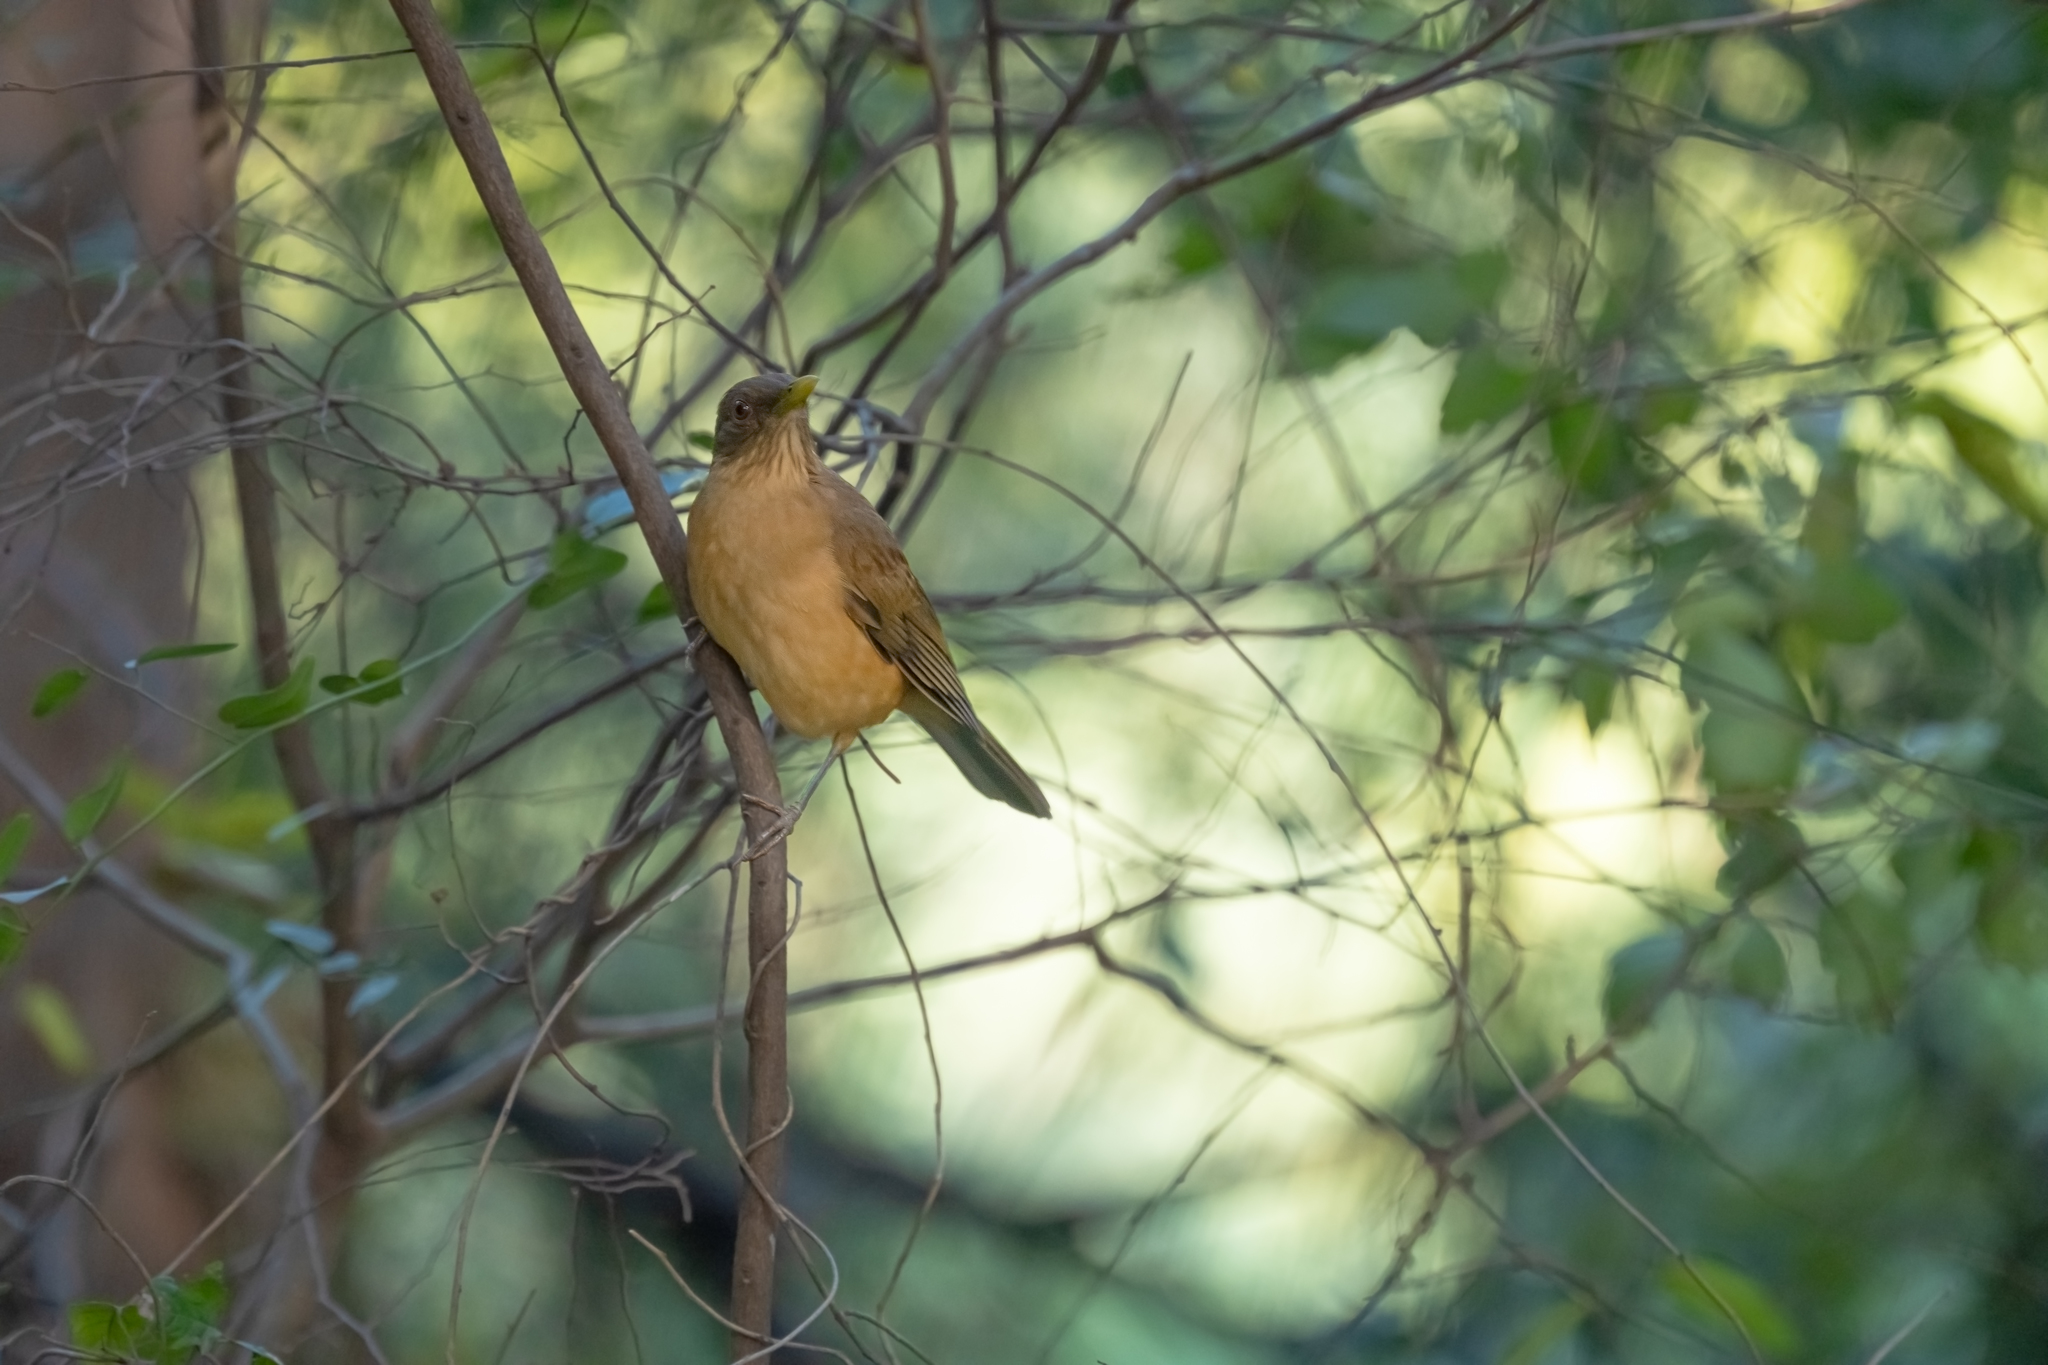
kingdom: Animalia
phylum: Chordata
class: Aves
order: Passeriformes
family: Turdidae
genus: Turdus
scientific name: Turdus grayi
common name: Clay-colored thrush
